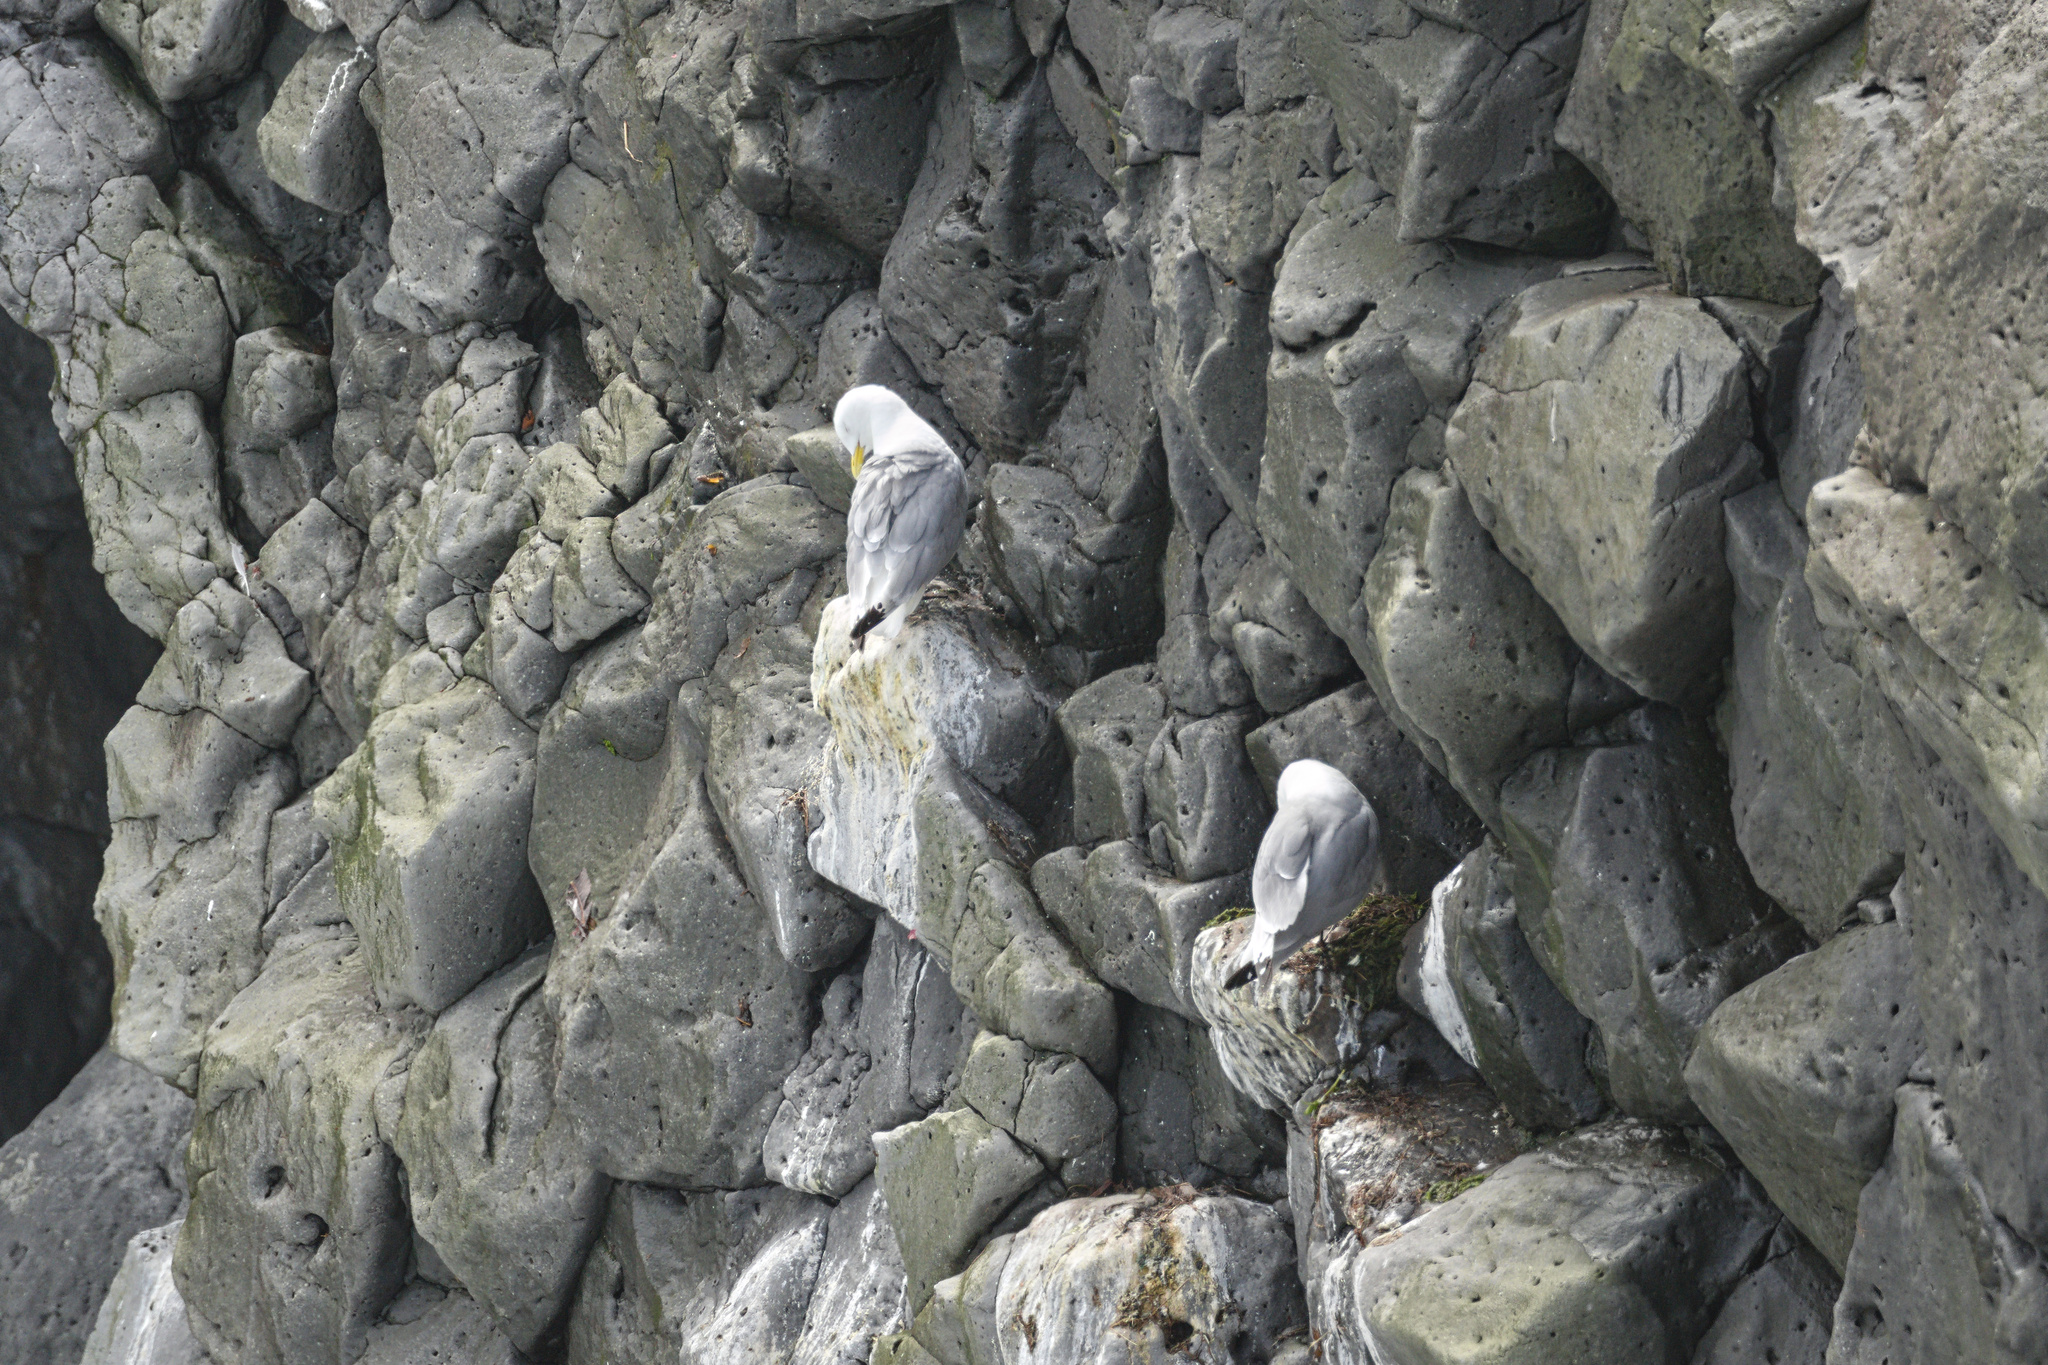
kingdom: Animalia
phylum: Chordata
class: Aves
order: Charadriiformes
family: Laridae
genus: Rissa
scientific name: Rissa tridactyla
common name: Black-legged kittiwake
